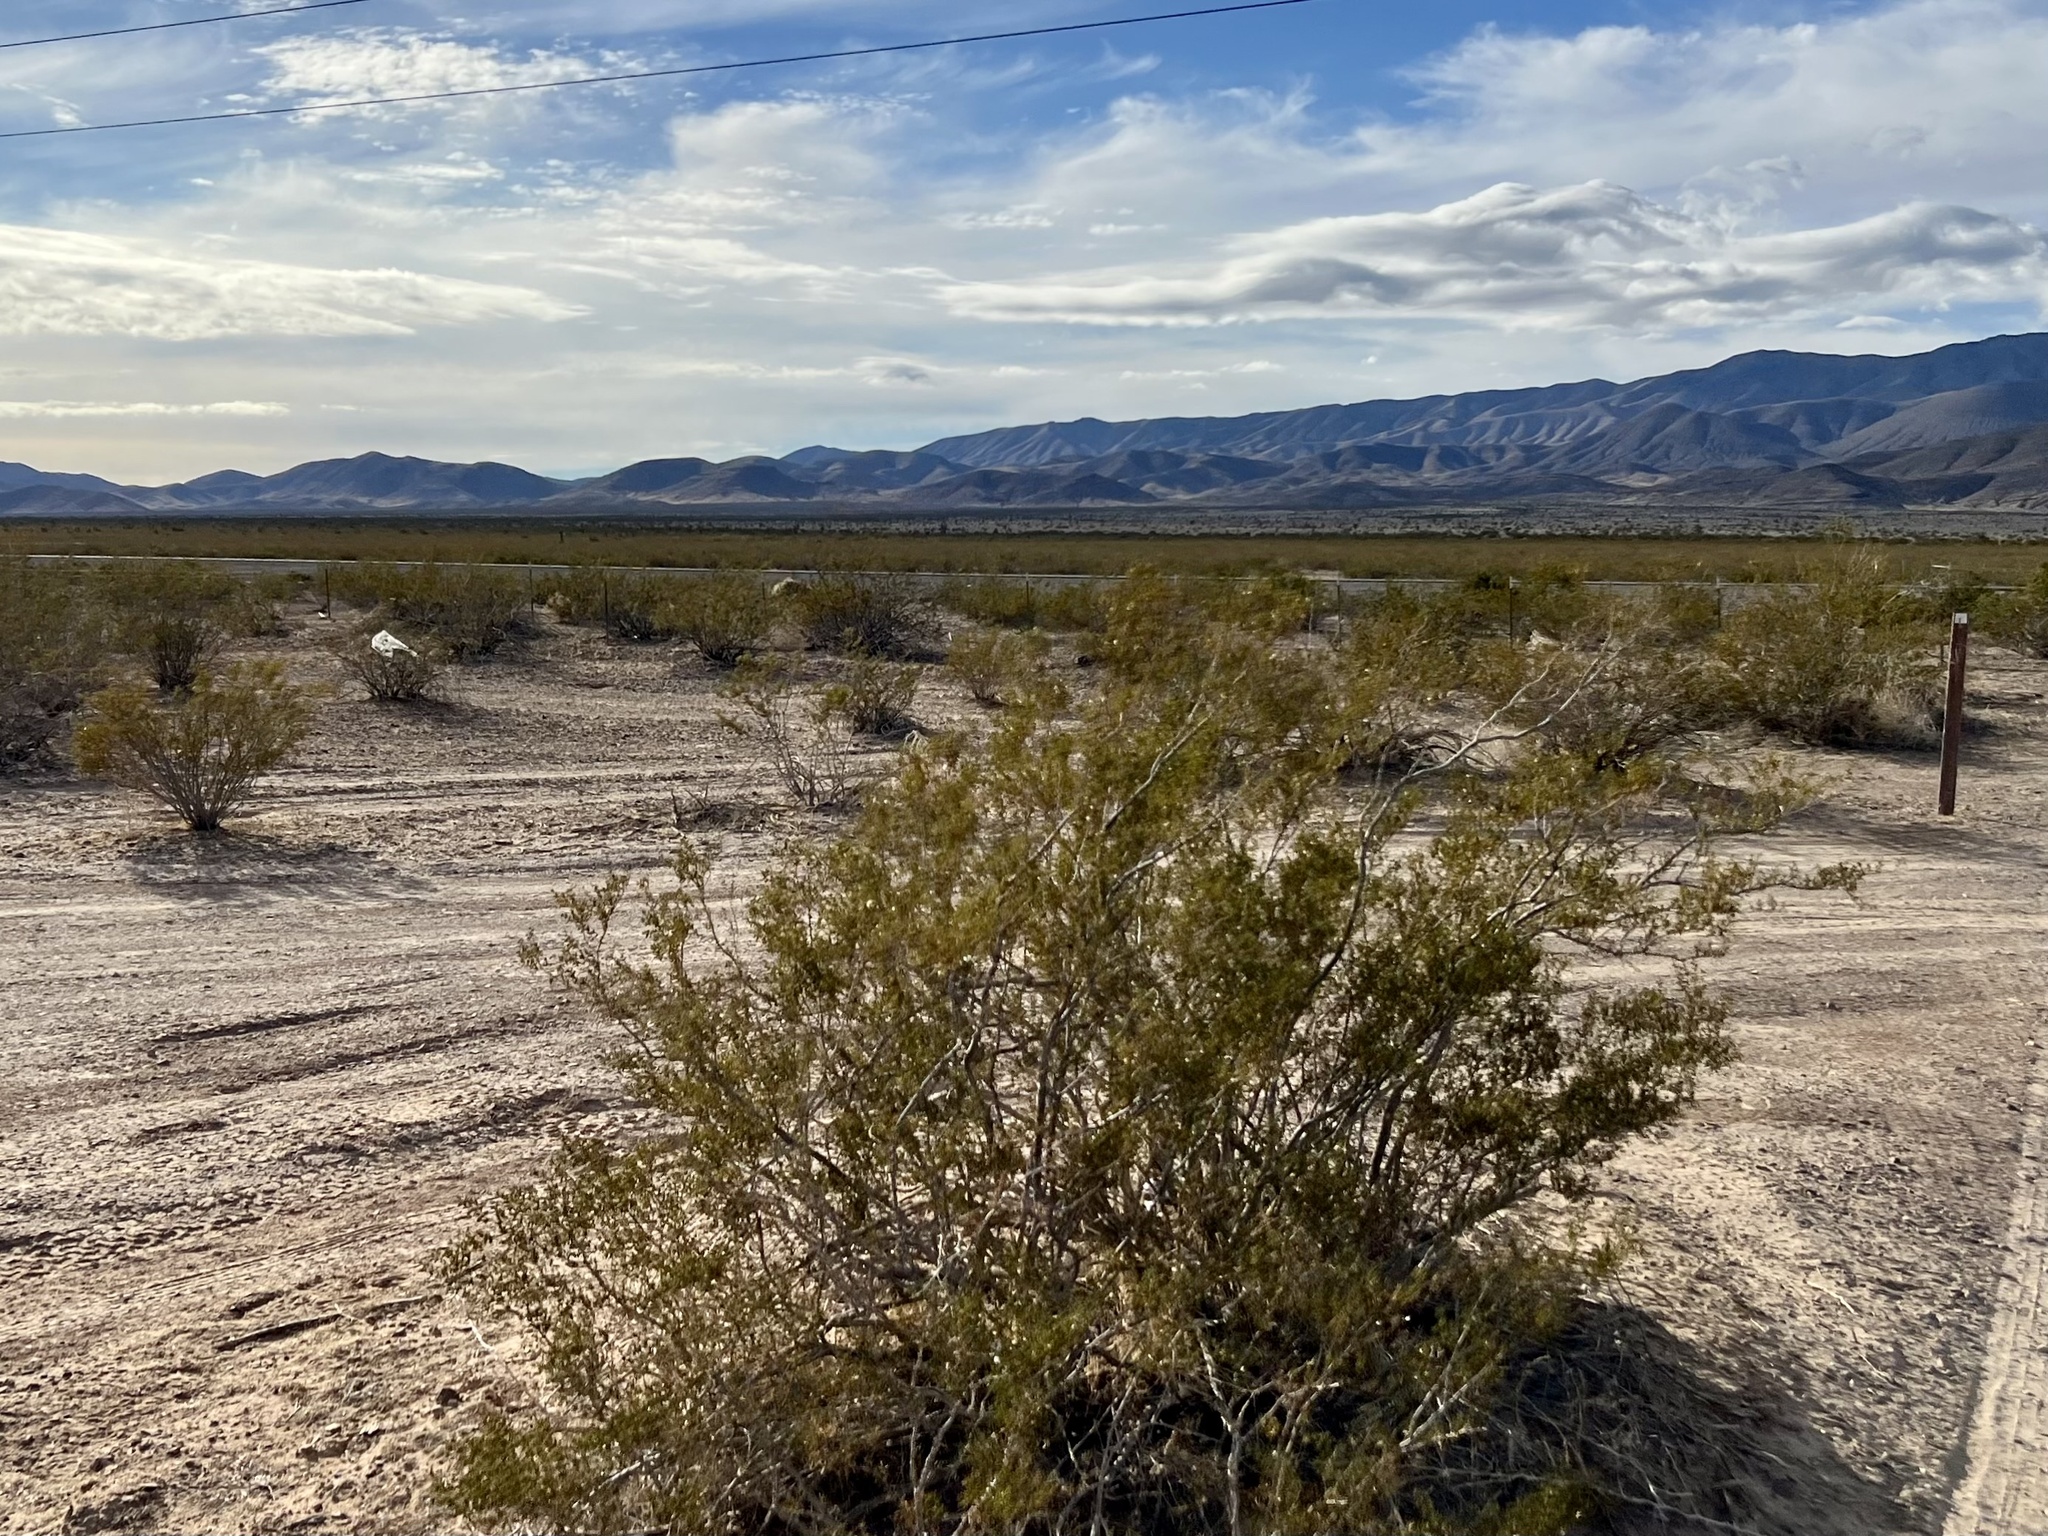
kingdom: Plantae
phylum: Tracheophyta
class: Magnoliopsida
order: Zygophyllales
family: Zygophyllaceae
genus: Larrea
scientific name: Larrea tridentata
